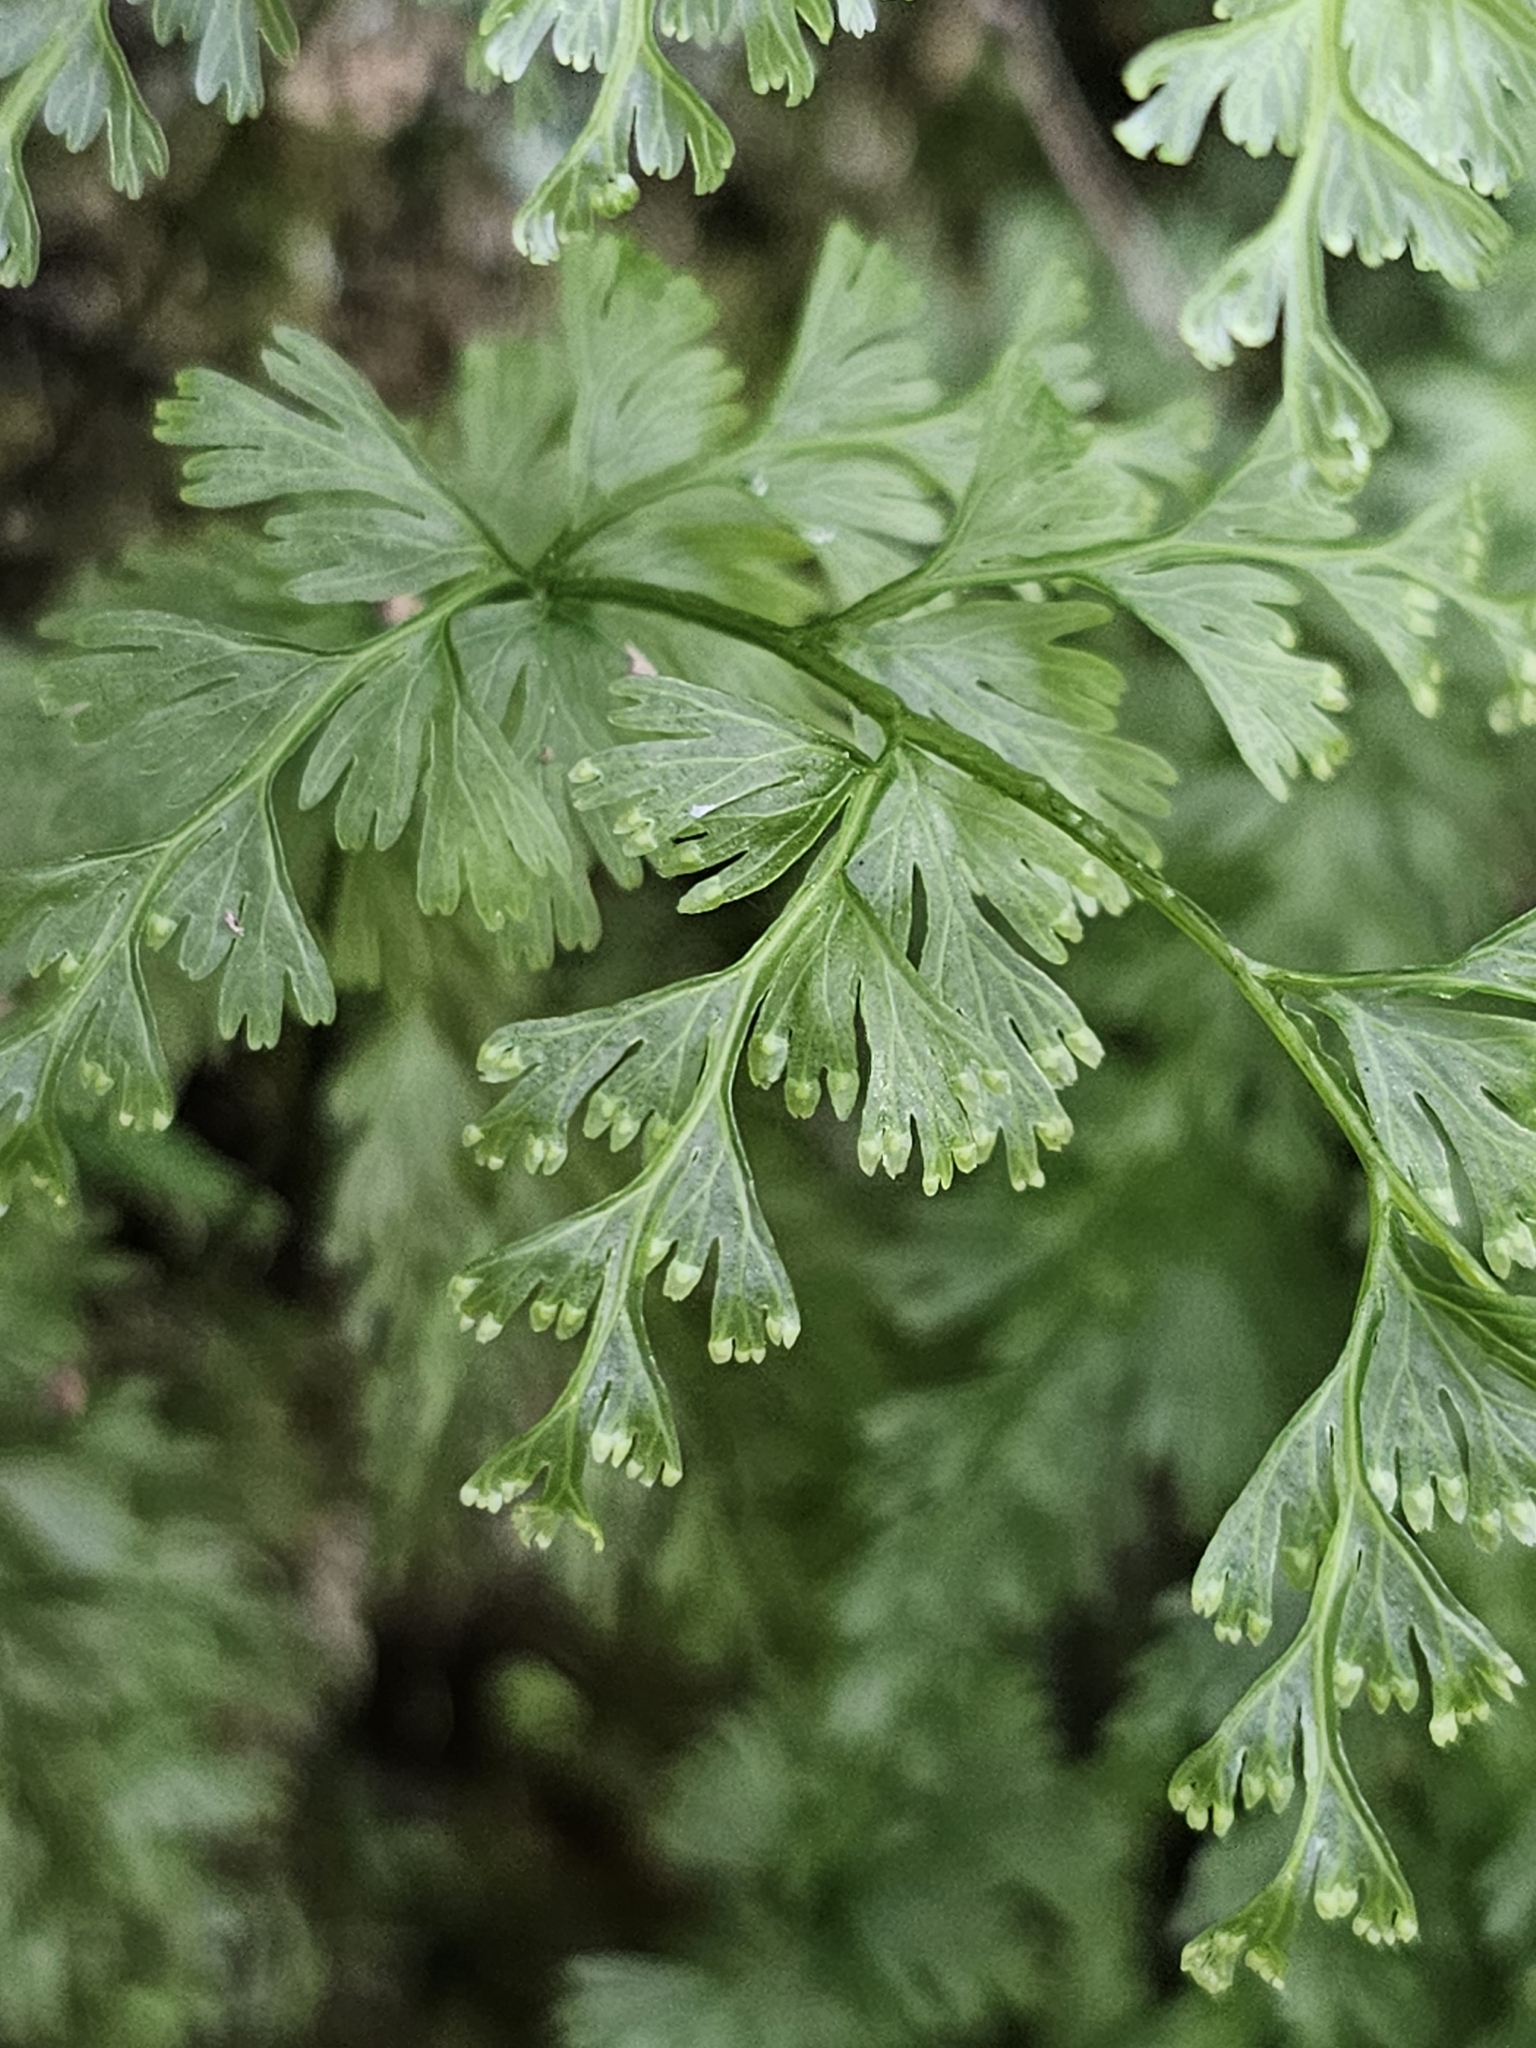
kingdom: Plantae
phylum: Tracheophyta
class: Polypodiopsida
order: Hymenophyllales
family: Hymenophyllaceae
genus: Hymenophyllum
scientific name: Hymenophyllum demissum
